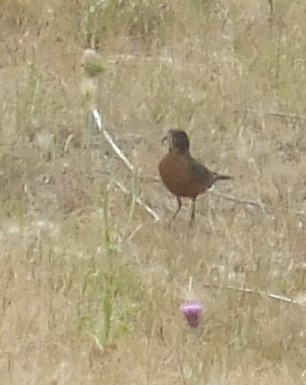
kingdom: Animalia
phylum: Chordata
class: Aves
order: Passeriformes
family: Turdidae
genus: Turdus
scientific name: Turdus migratorius
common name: American robin
